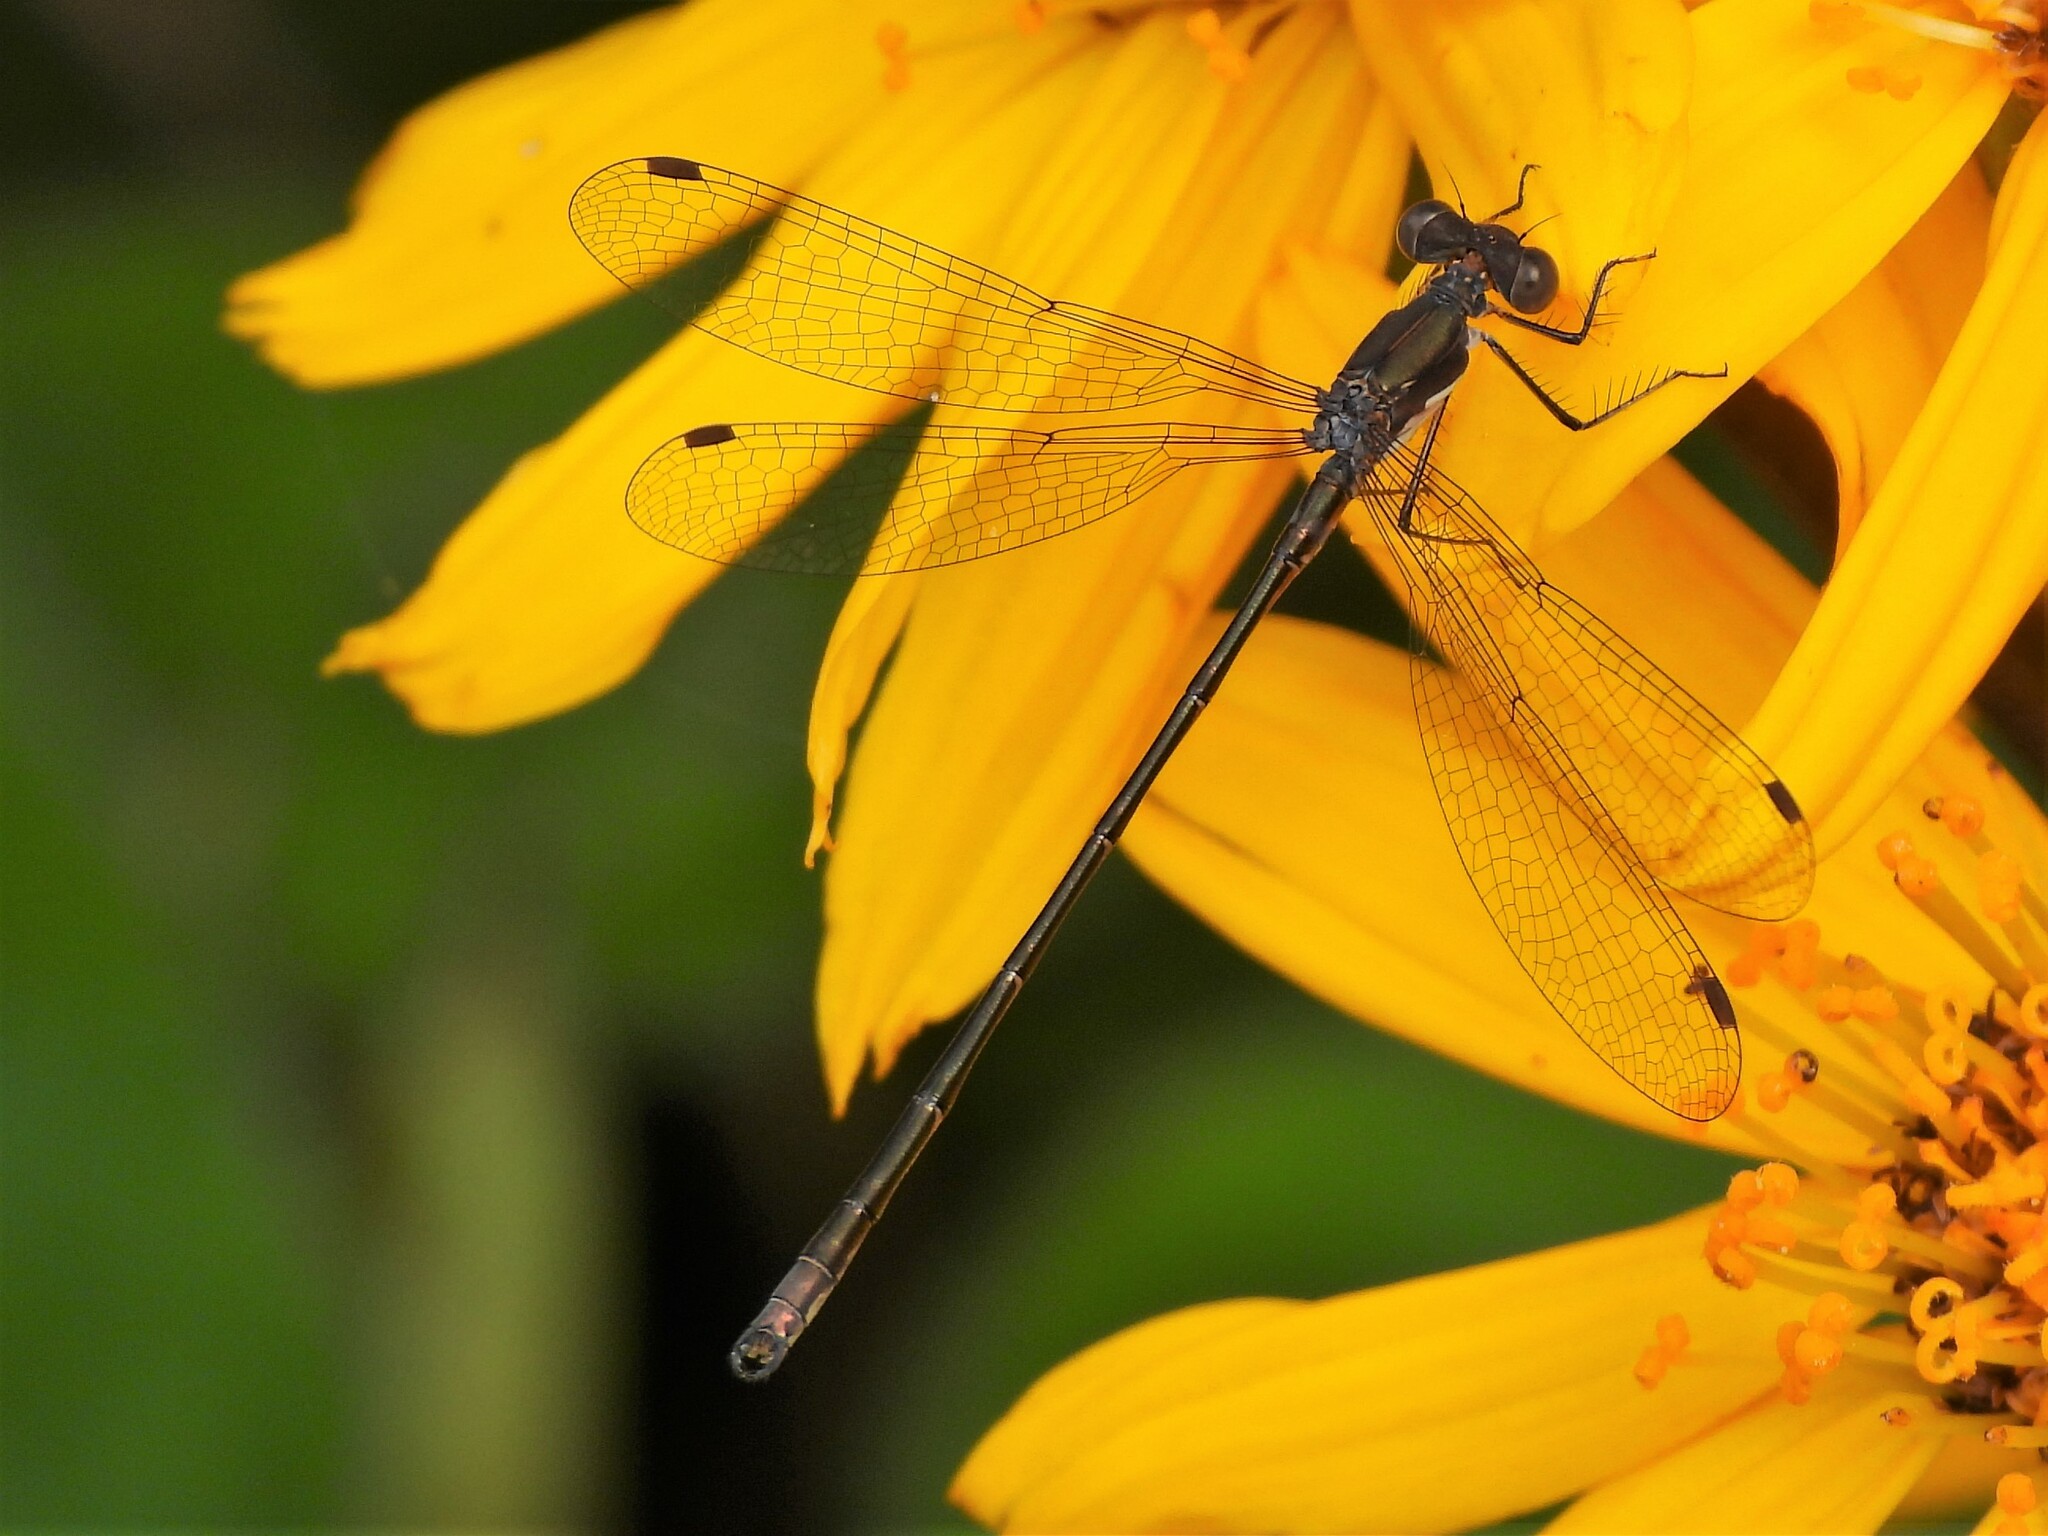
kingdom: Animalia
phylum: Arthropoda
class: Insecta
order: Odonata
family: Lestidae
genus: Lestes
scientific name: Lestes congener
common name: Spotted spreadwing
